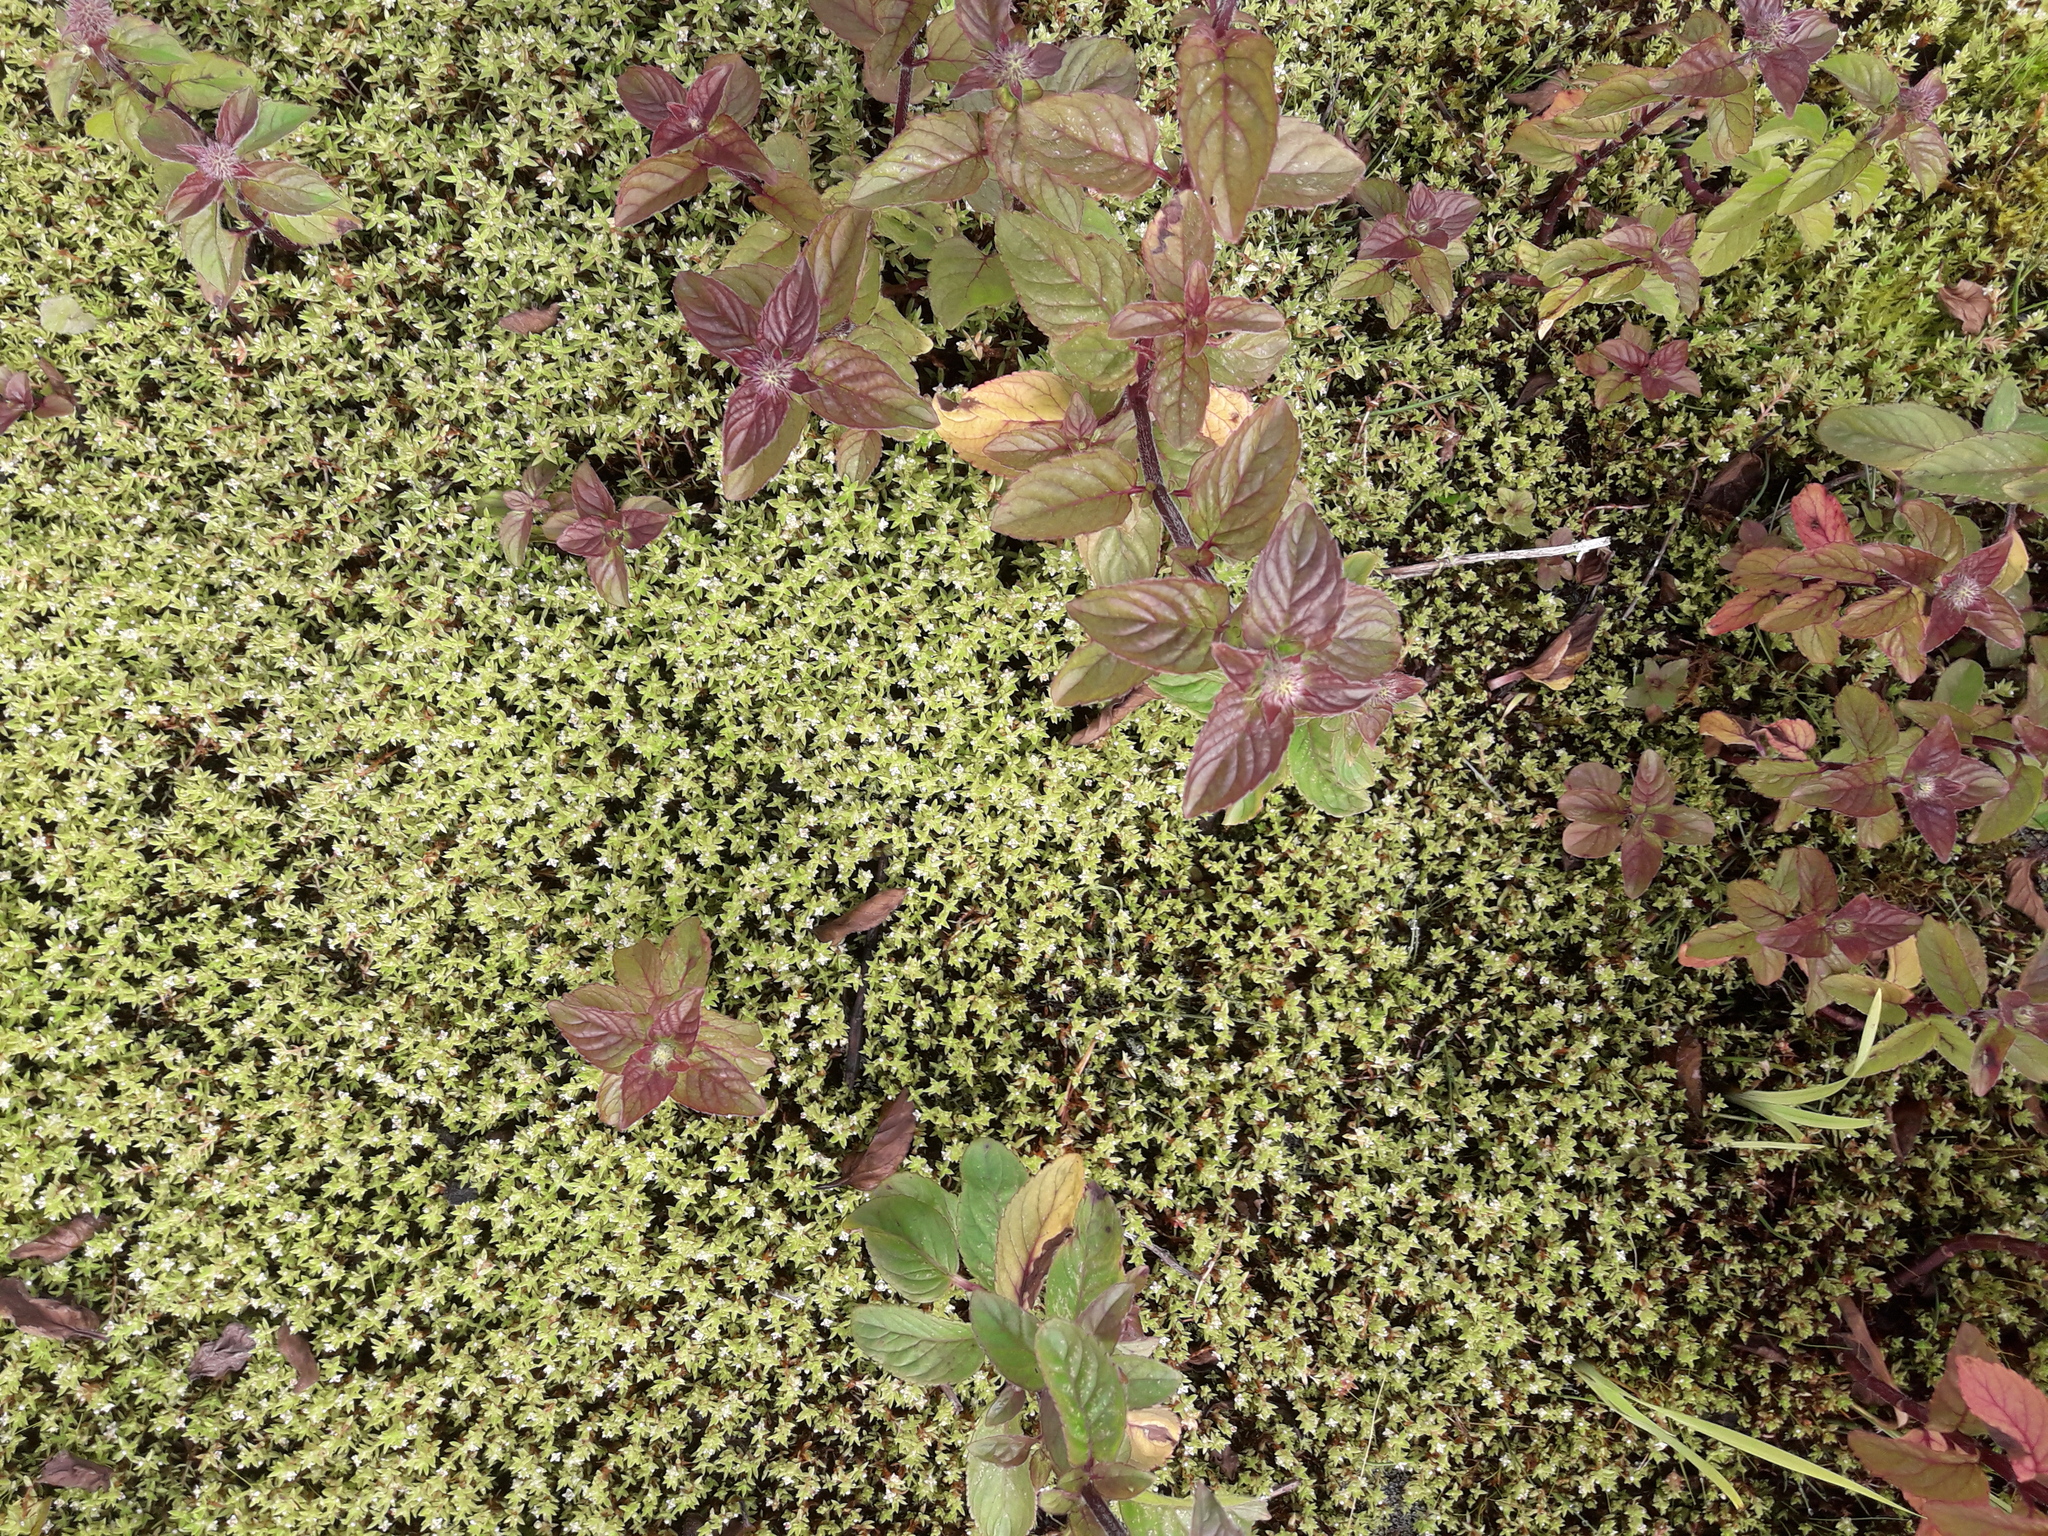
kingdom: Plantae
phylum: Tracheophyta
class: Magnoliopsida
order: Lamiales
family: Lamiaceae
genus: Mentha
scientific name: Mentha aquatica
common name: Water mint
